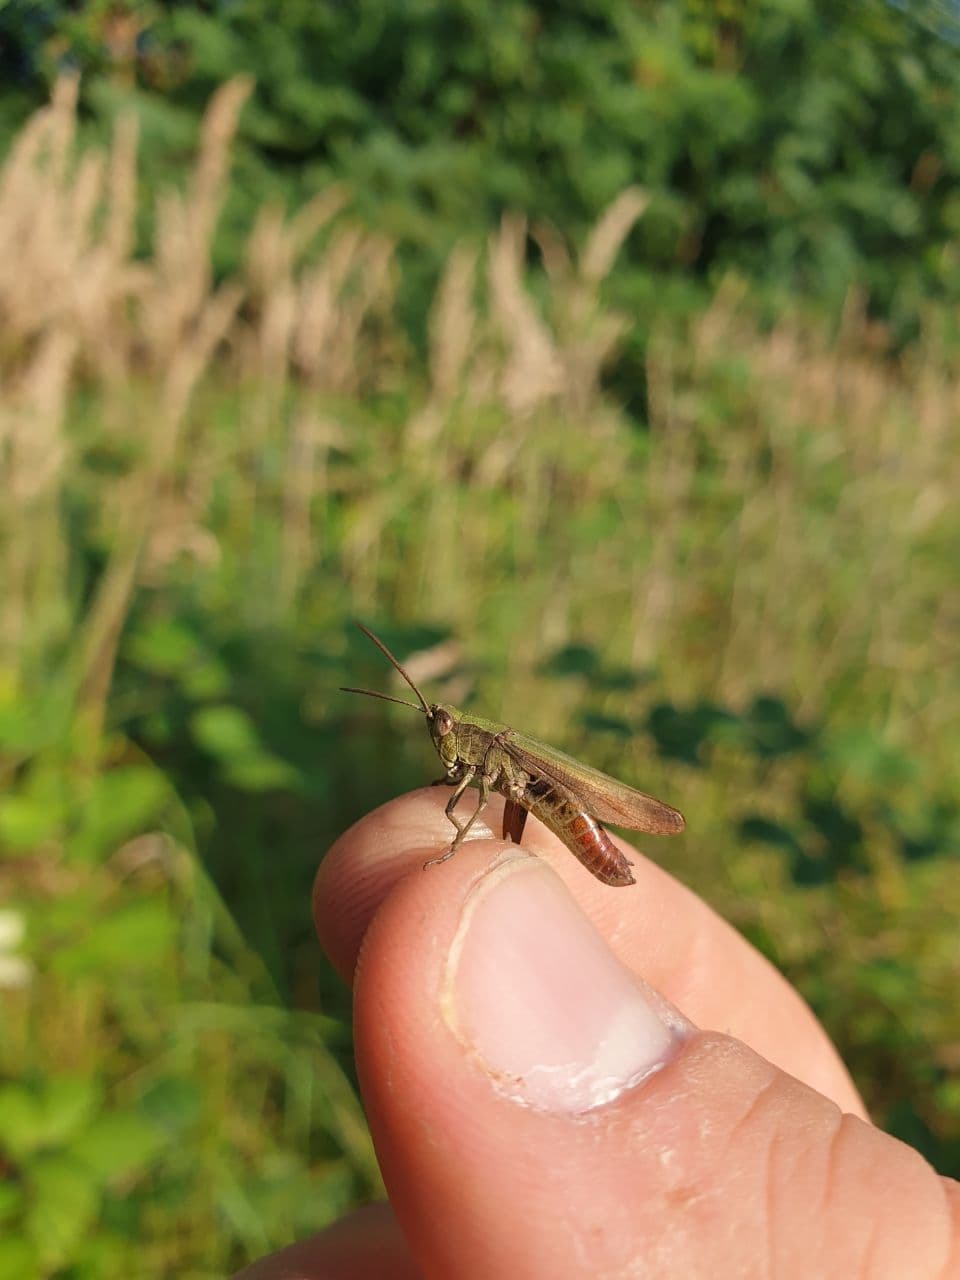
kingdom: Animalia
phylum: Arthropoda
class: Insecta
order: Orthoptera
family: Acrididae
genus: Chorthippus
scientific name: Chorthippus dorsatus
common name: Steppe grasshopper
